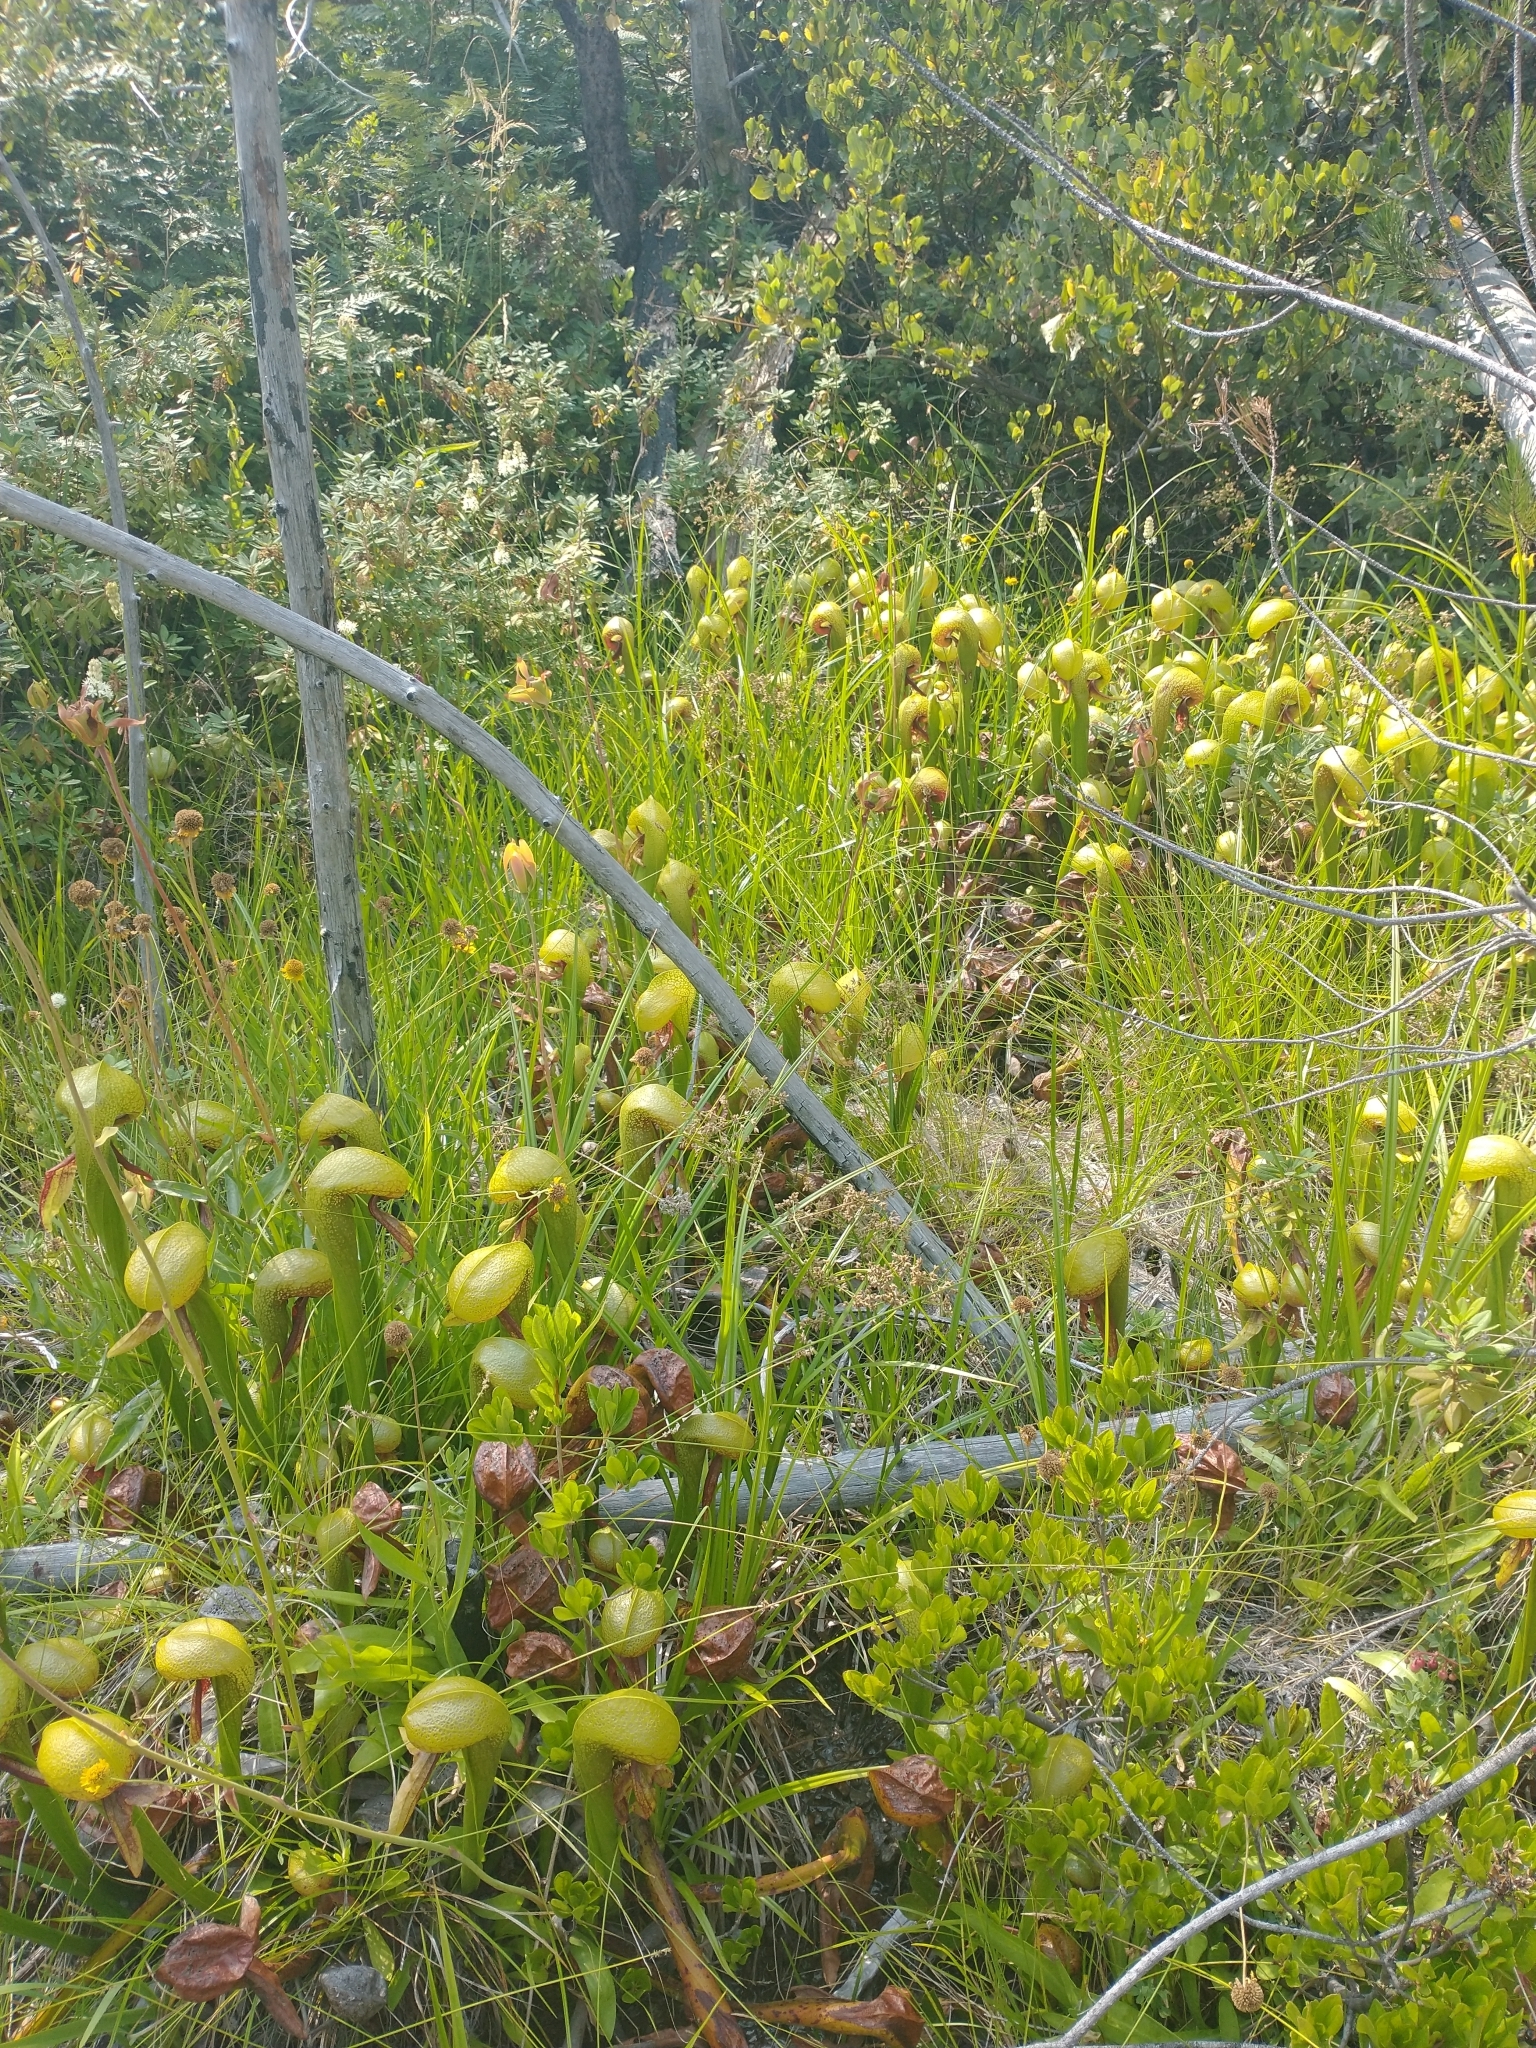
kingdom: Plantae
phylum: Tracheophyta
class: Magnoliopsida
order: Ericales
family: Sarraceniaceae
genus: Darlingtonia
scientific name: Darlingtonia californica
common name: California pitcher plant
